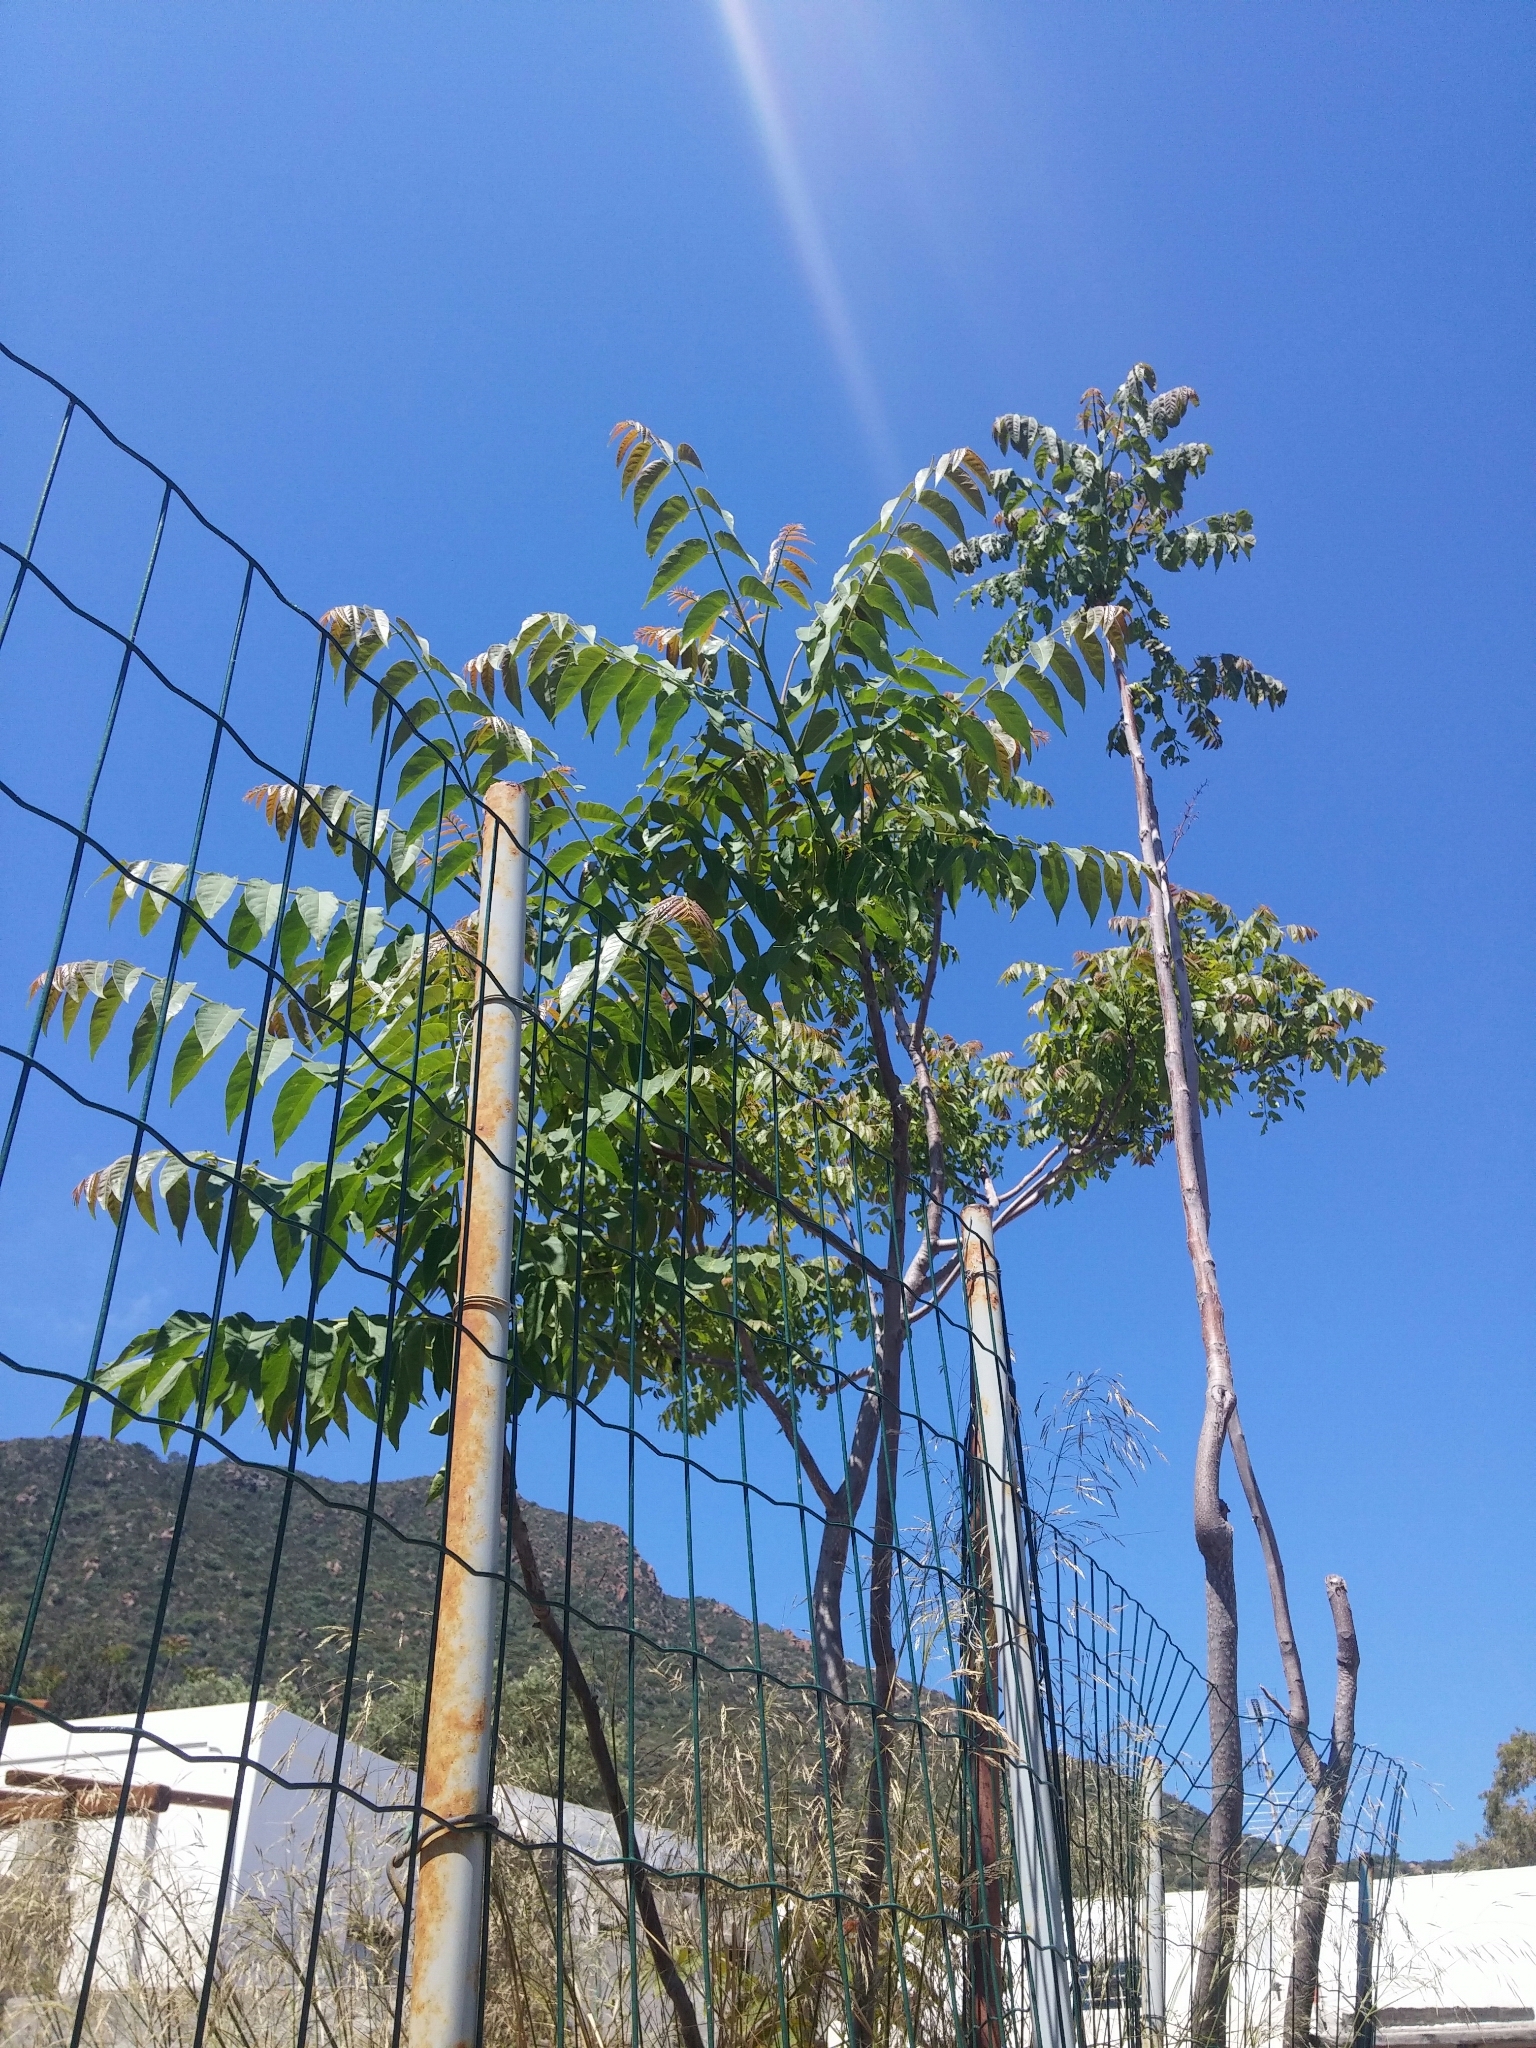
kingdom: Plantae
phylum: Tracheophyta
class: Magnoliopsida
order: Sapindales
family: Simaroubaceae
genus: Ailanthus
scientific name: Ailanthus altissima
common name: Tree-of-heaven
